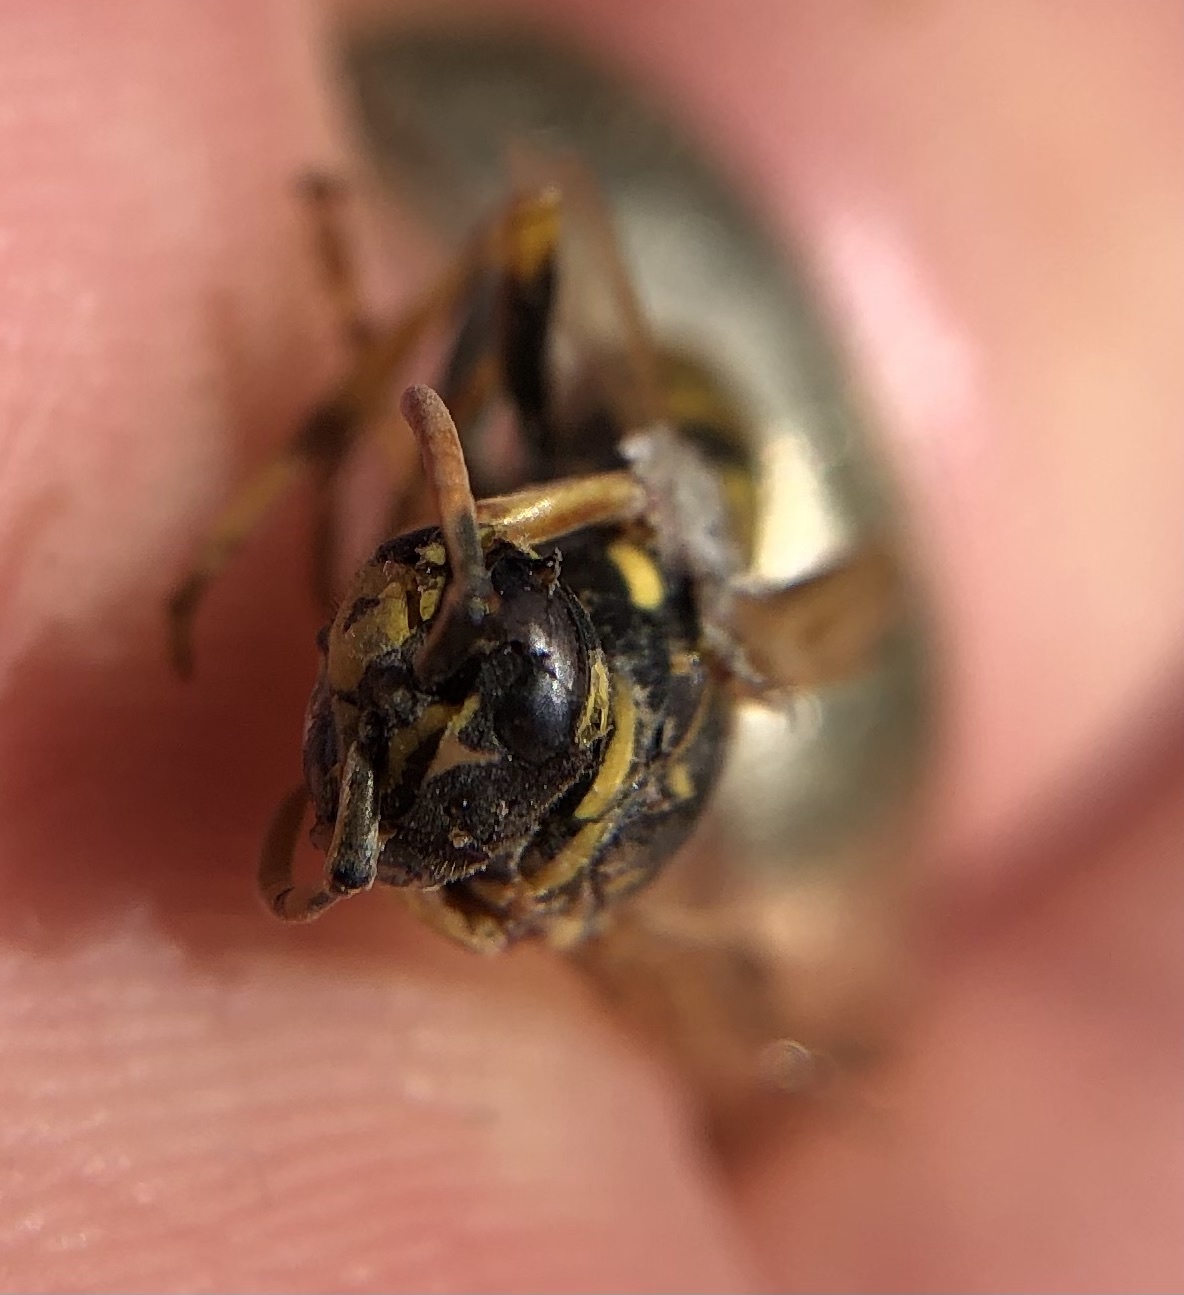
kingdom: Animalia
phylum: Arthropoda
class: Insecta
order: Hymenoptera
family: Eumenidae
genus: Polistes
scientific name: Polistes dominula
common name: Paper wasp
